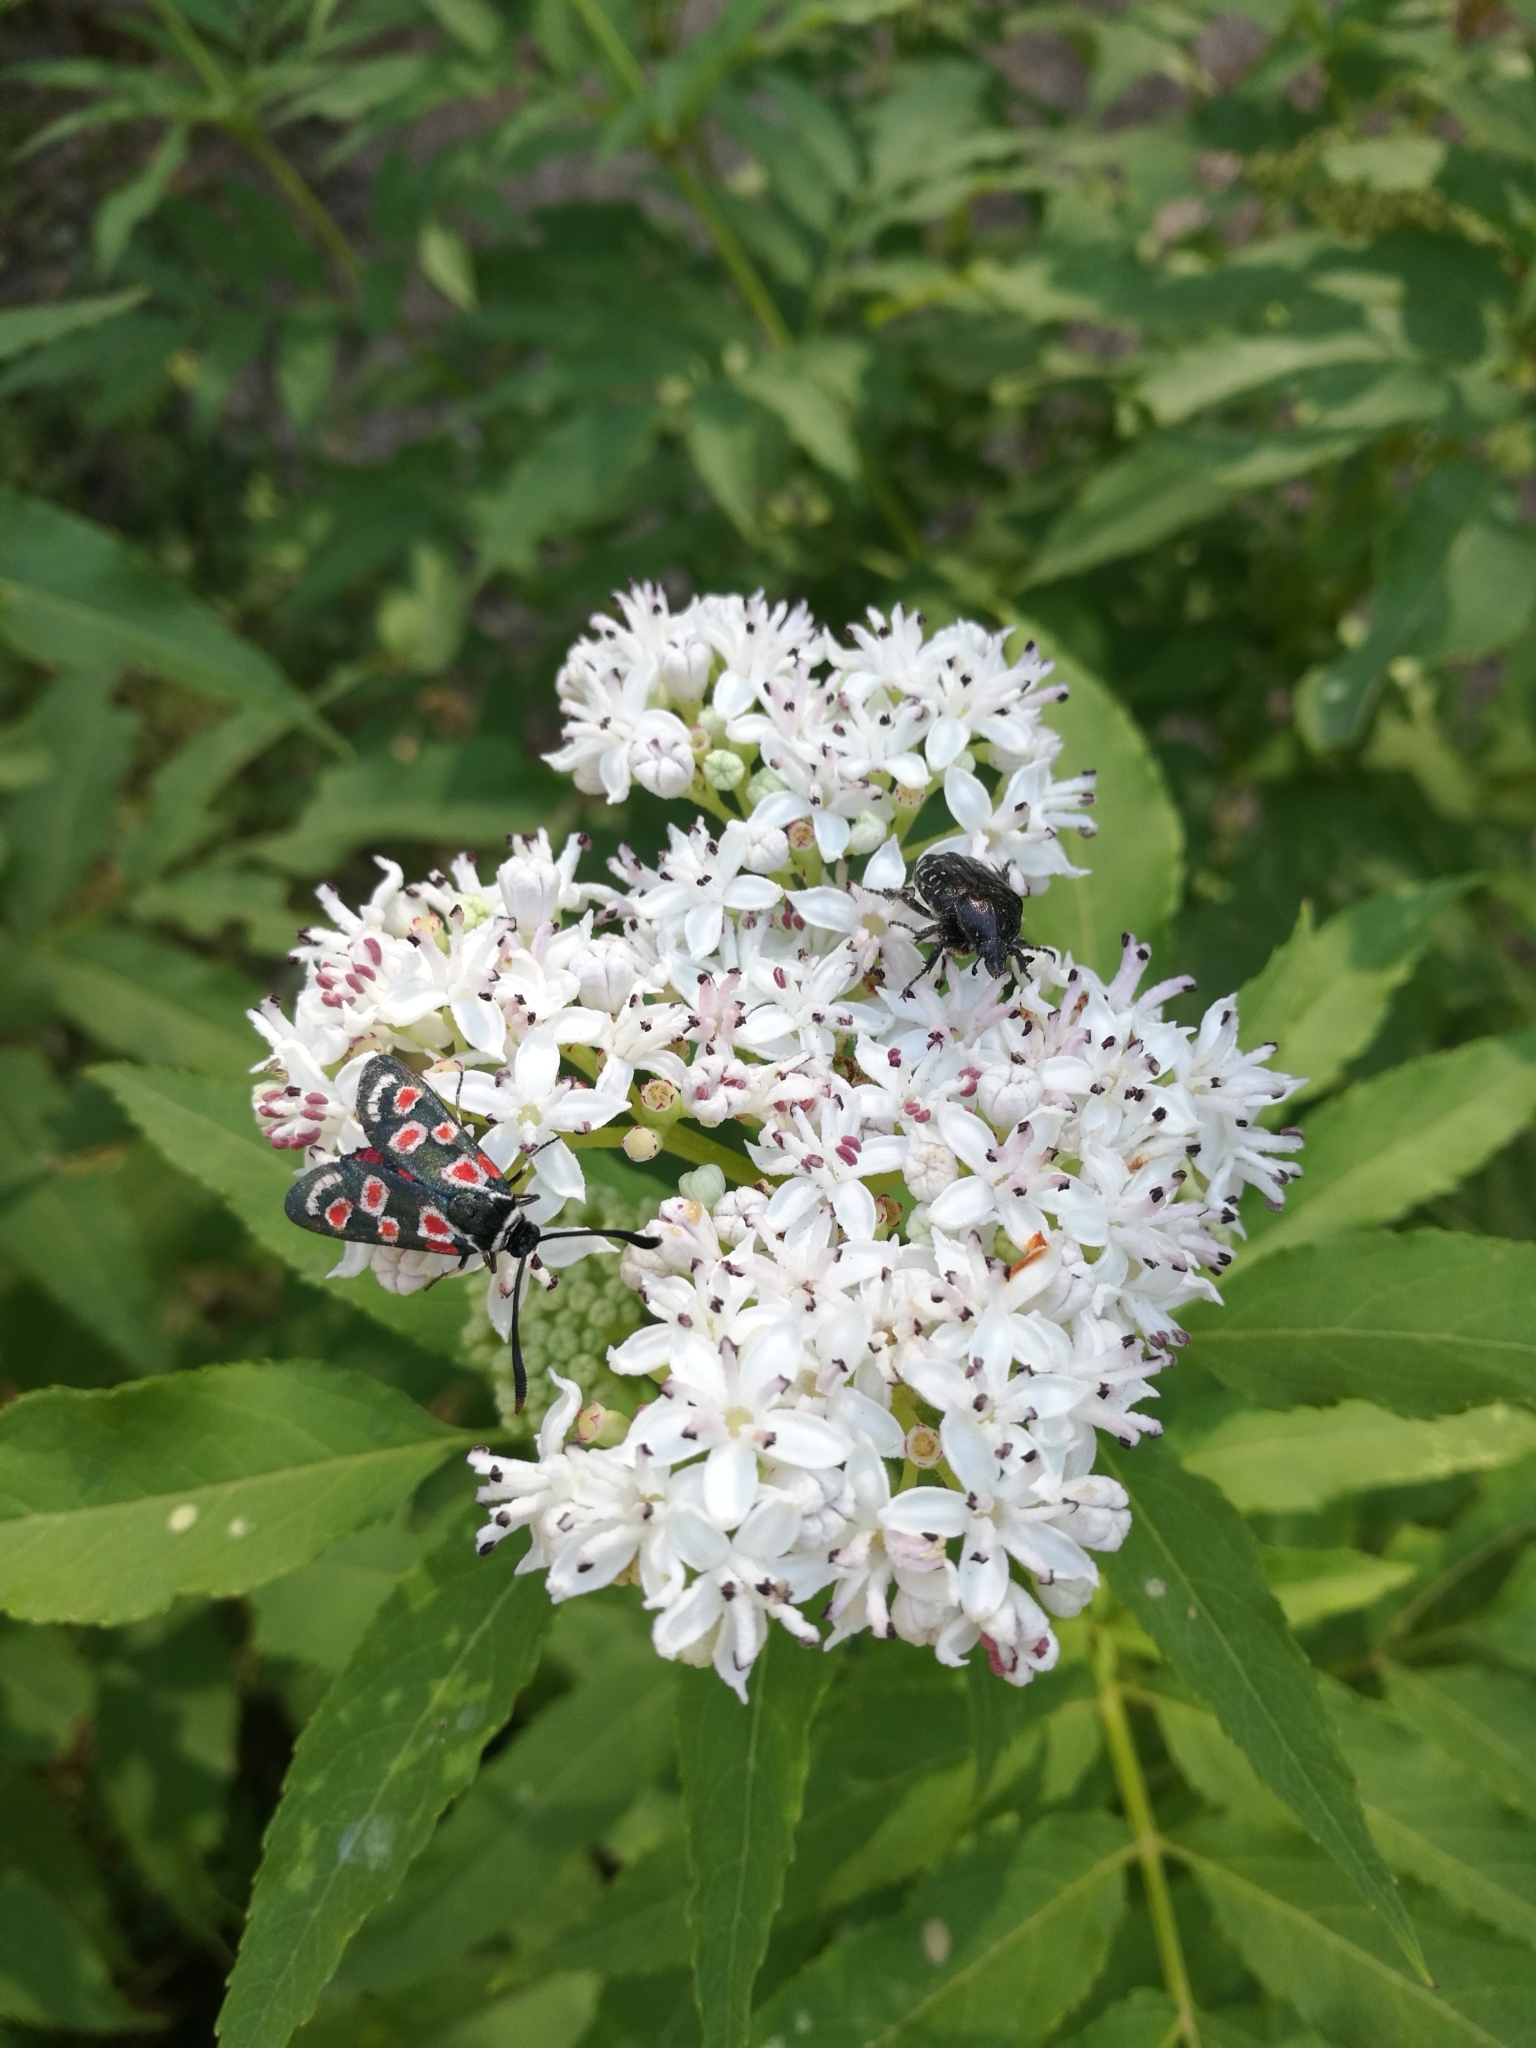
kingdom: Animalia
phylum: Arthropoda
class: Insecta
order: Lepidoptera
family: Zygaenidae
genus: Zygaena
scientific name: Zygaena occitanica
